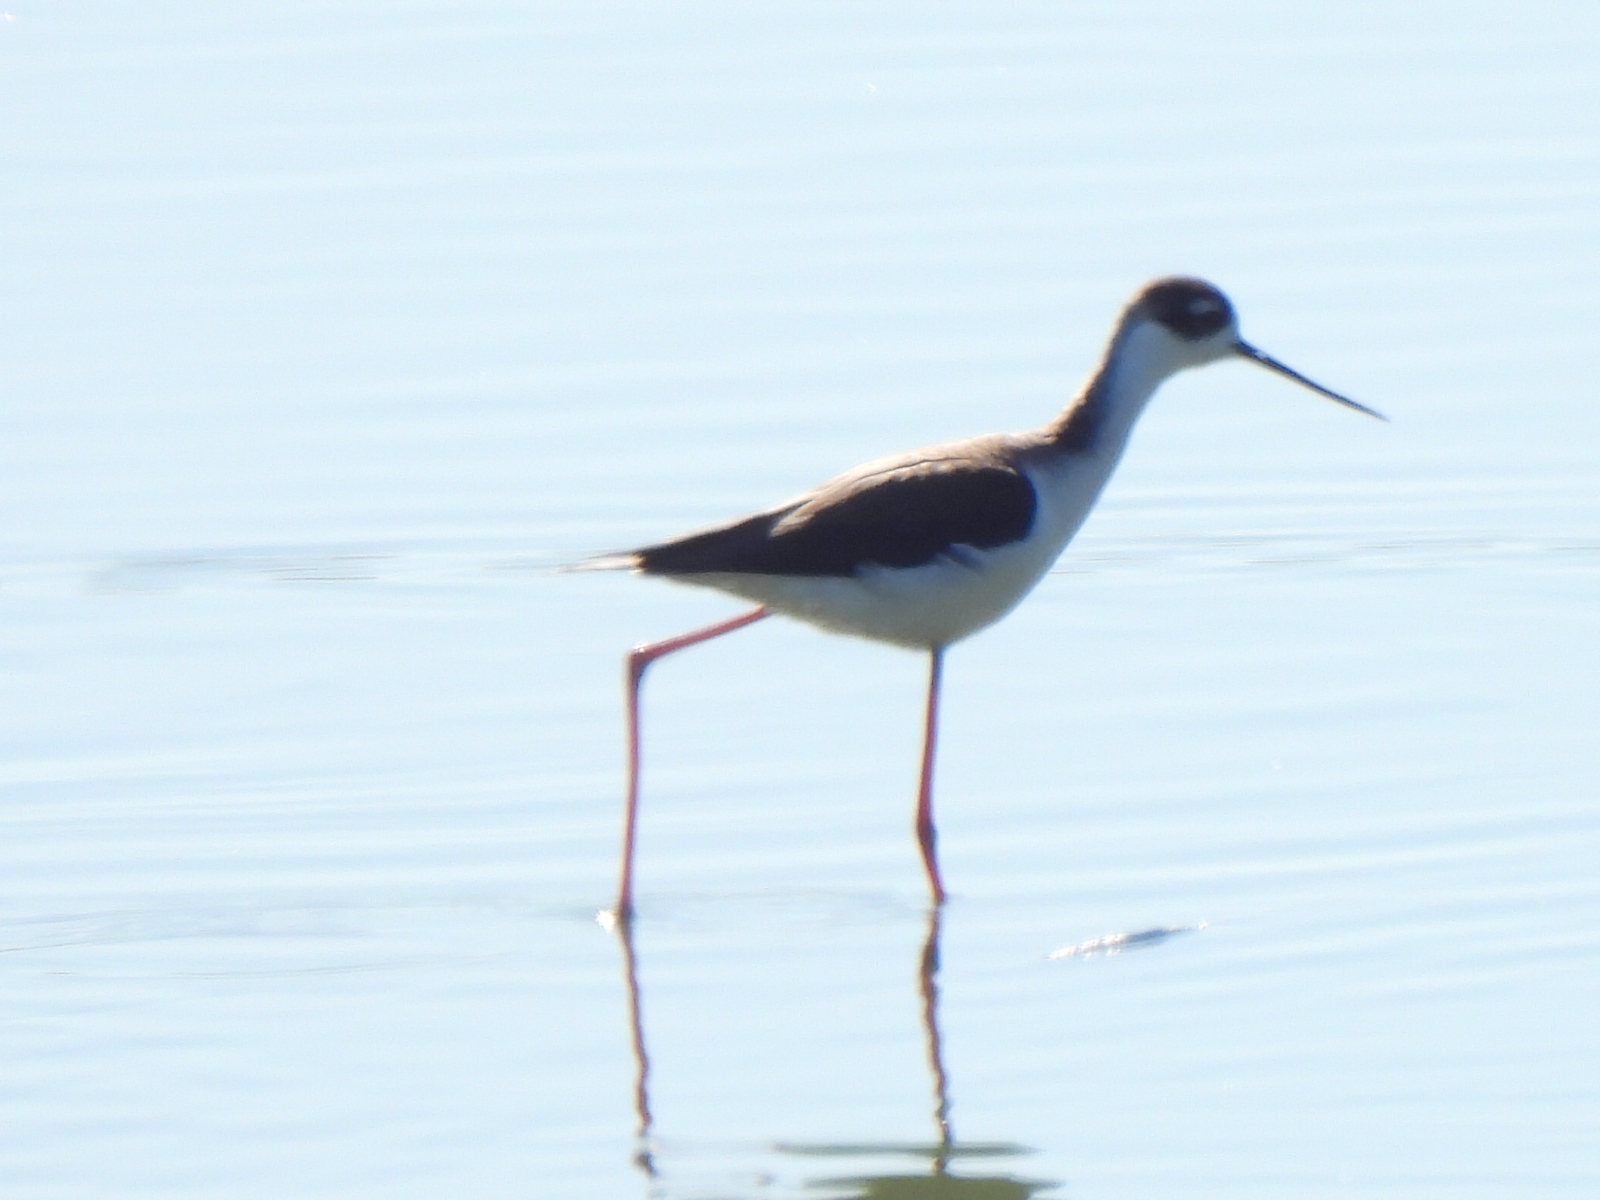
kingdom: Animalia
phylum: Chordata
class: Aves
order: Charadriiformes
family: Recurvirostridae
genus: Himantopus
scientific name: Himantopus mexicanus
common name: Black-necked stilt
